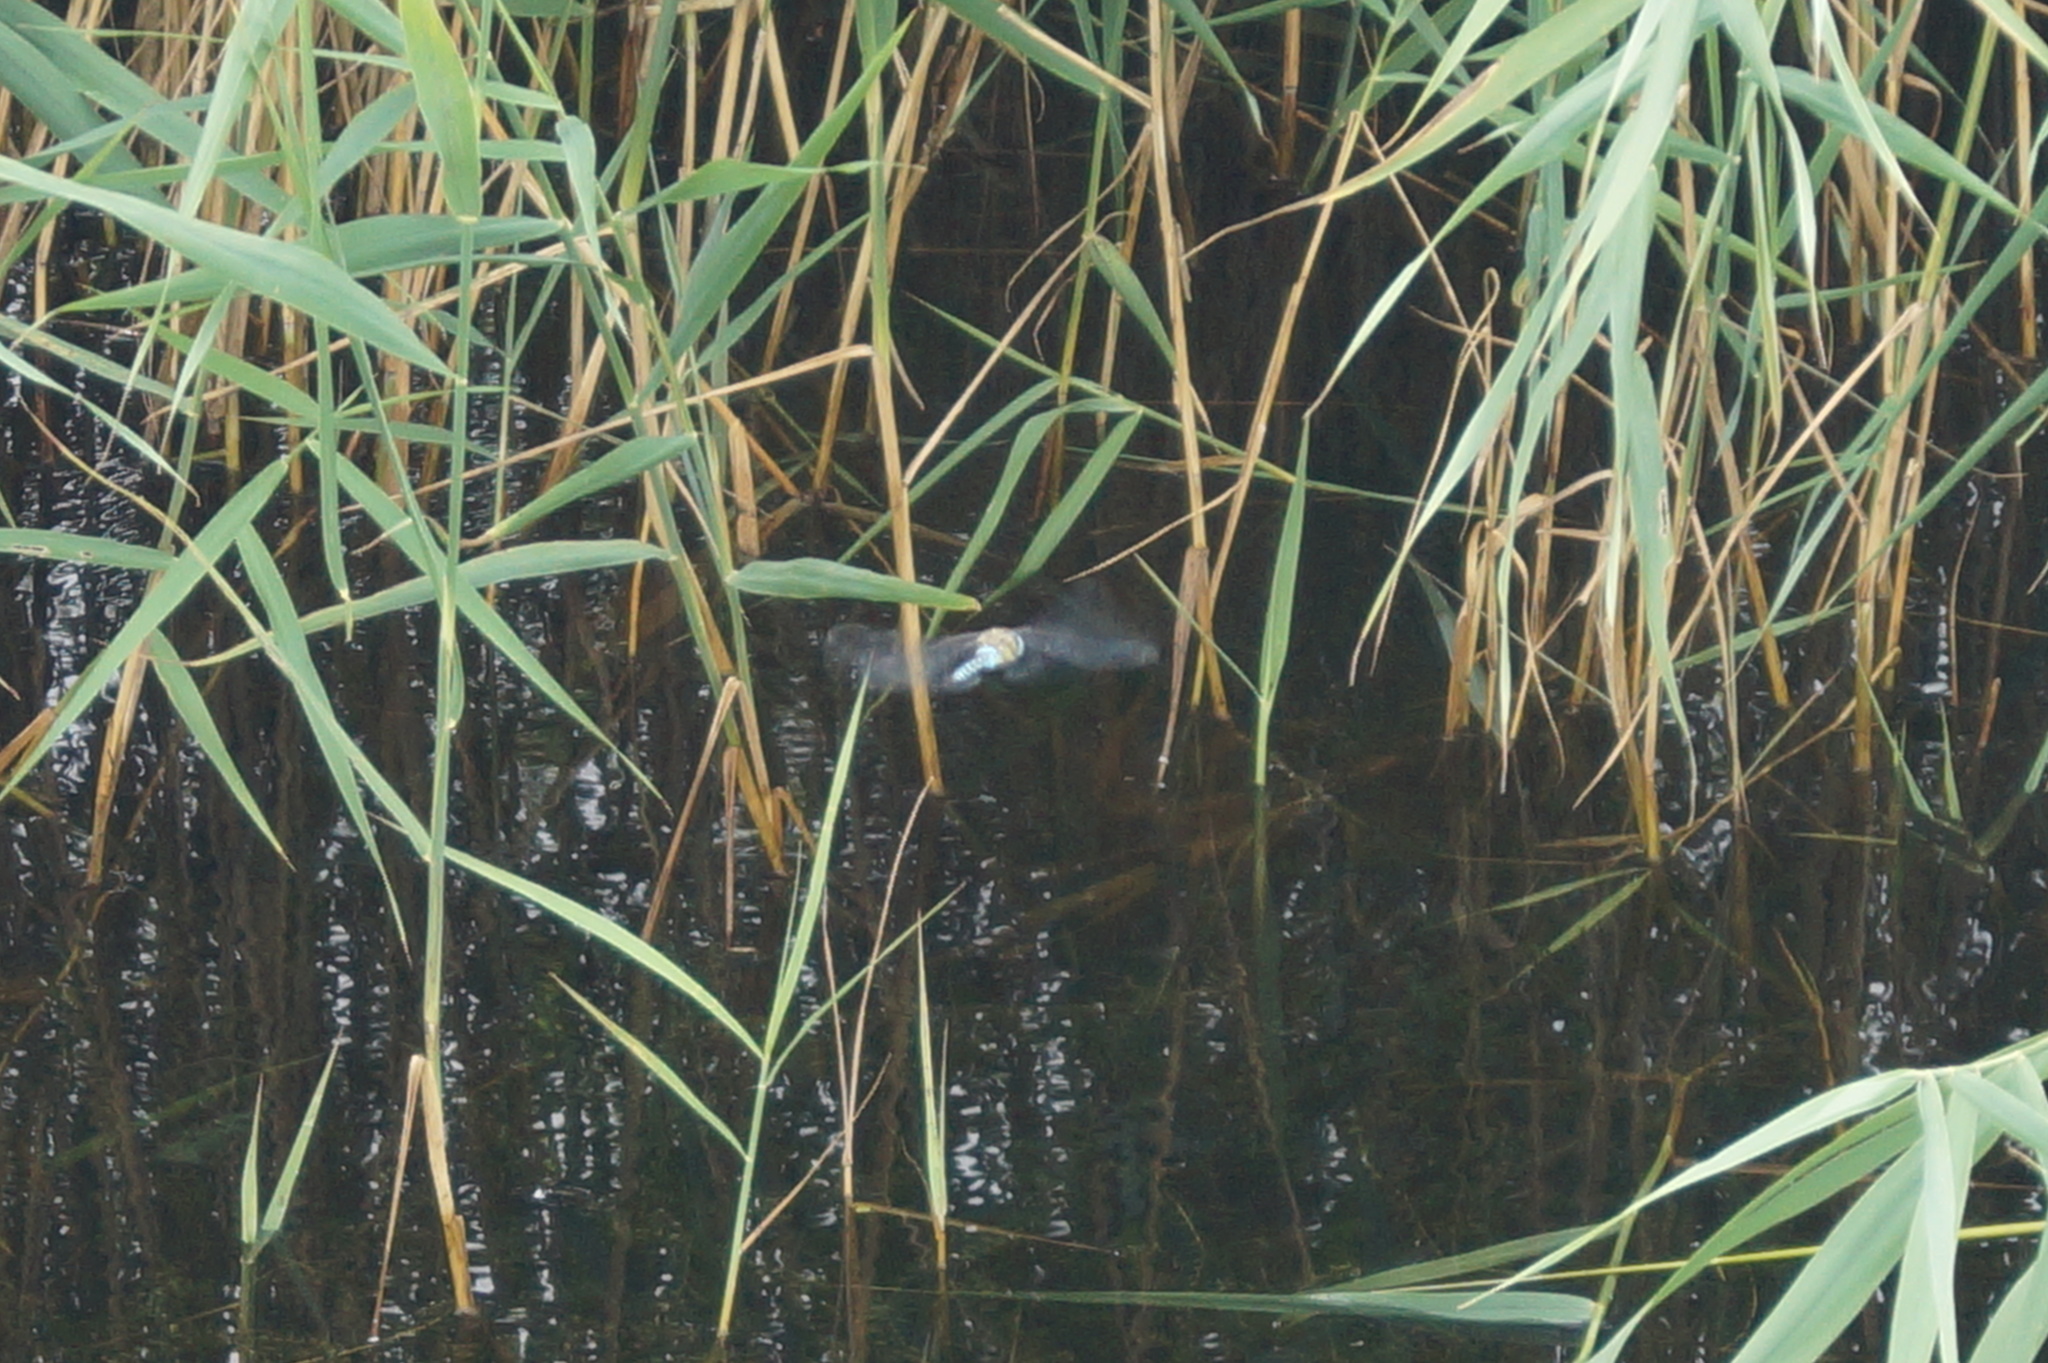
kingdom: Animalia
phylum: Arthropoda
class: Insecta
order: Odonata
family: Aeshnidae
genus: Aeshna
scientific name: Aeshna mixta
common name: Migrant hawker
